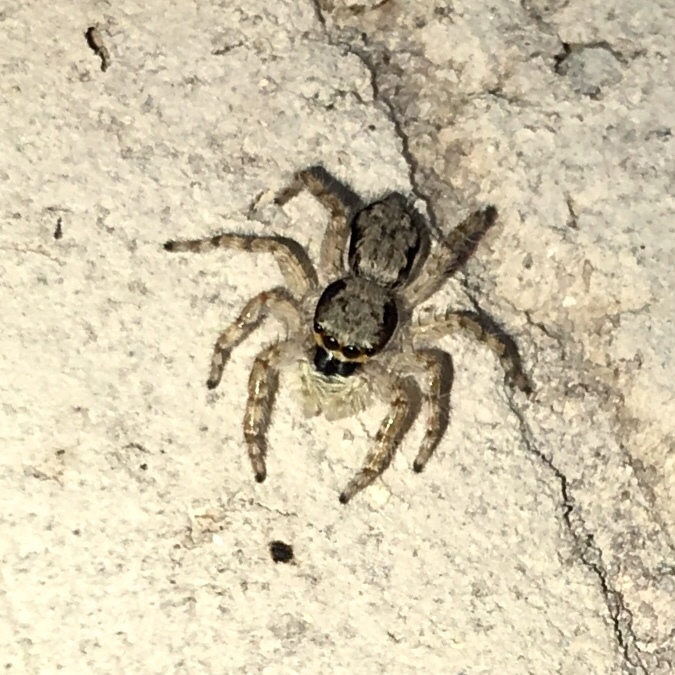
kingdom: Animalia
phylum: Arthropoda
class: Arachnida
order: Araneae
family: Salticidae
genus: Menemerus
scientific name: Menemerus bivittatus
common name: Gray wall jumper
